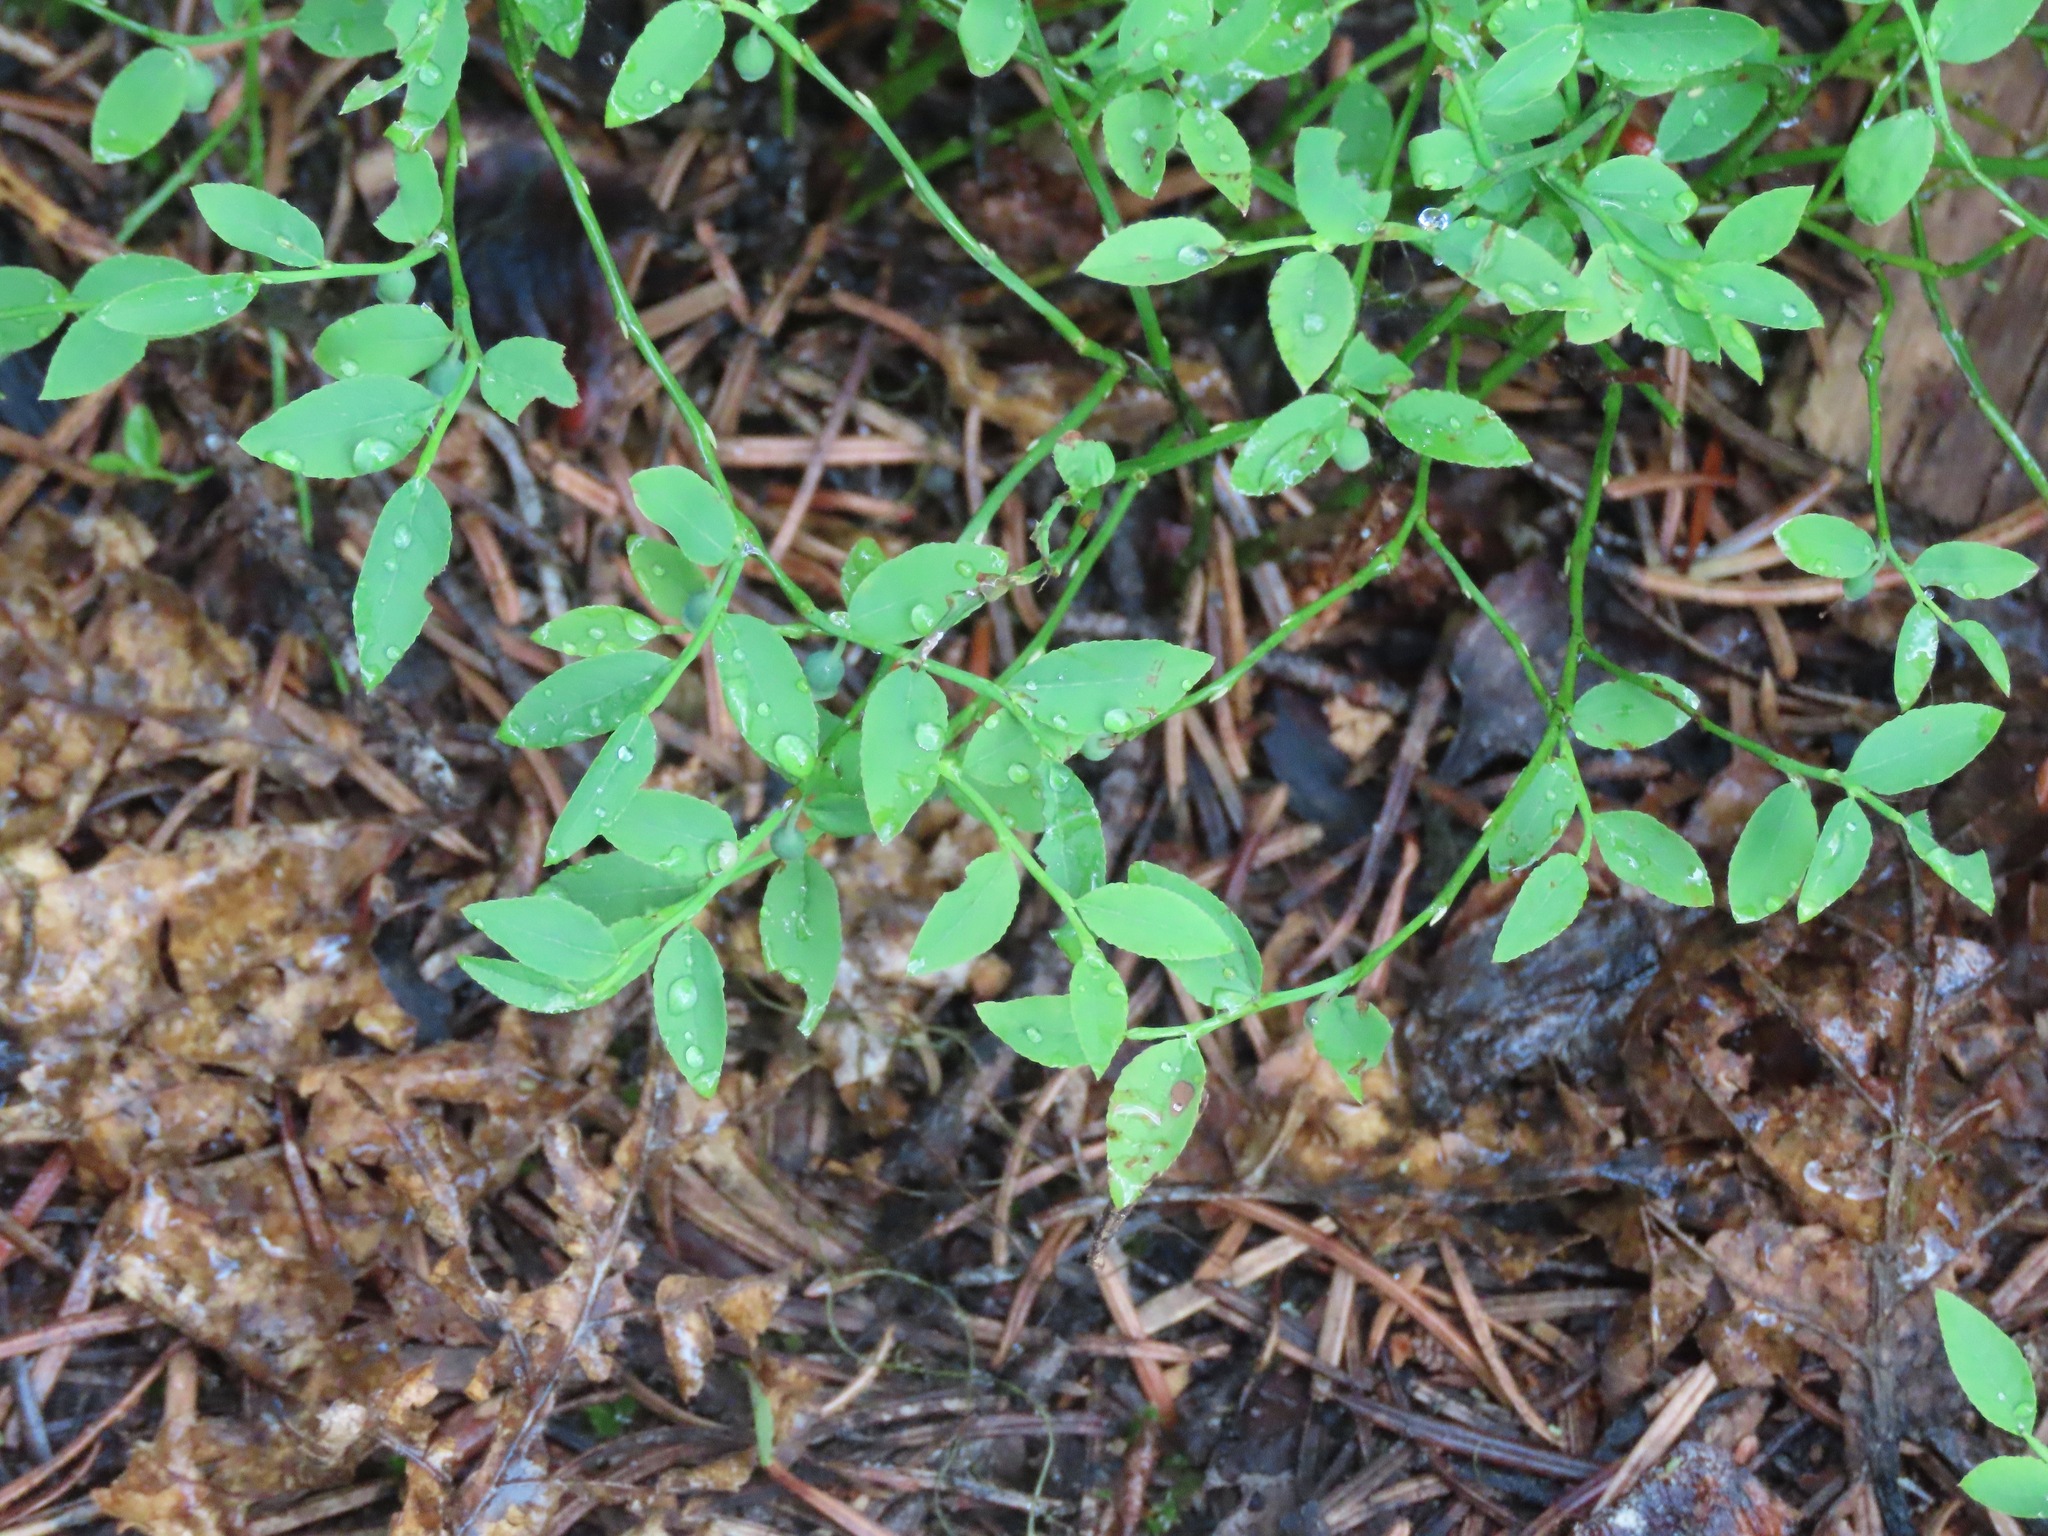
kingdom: Plantae
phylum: Tracheophyta
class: Magnoliopsida
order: Ericales
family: Ericaceae
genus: Vaccinium
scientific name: Vaccinium scoparium
